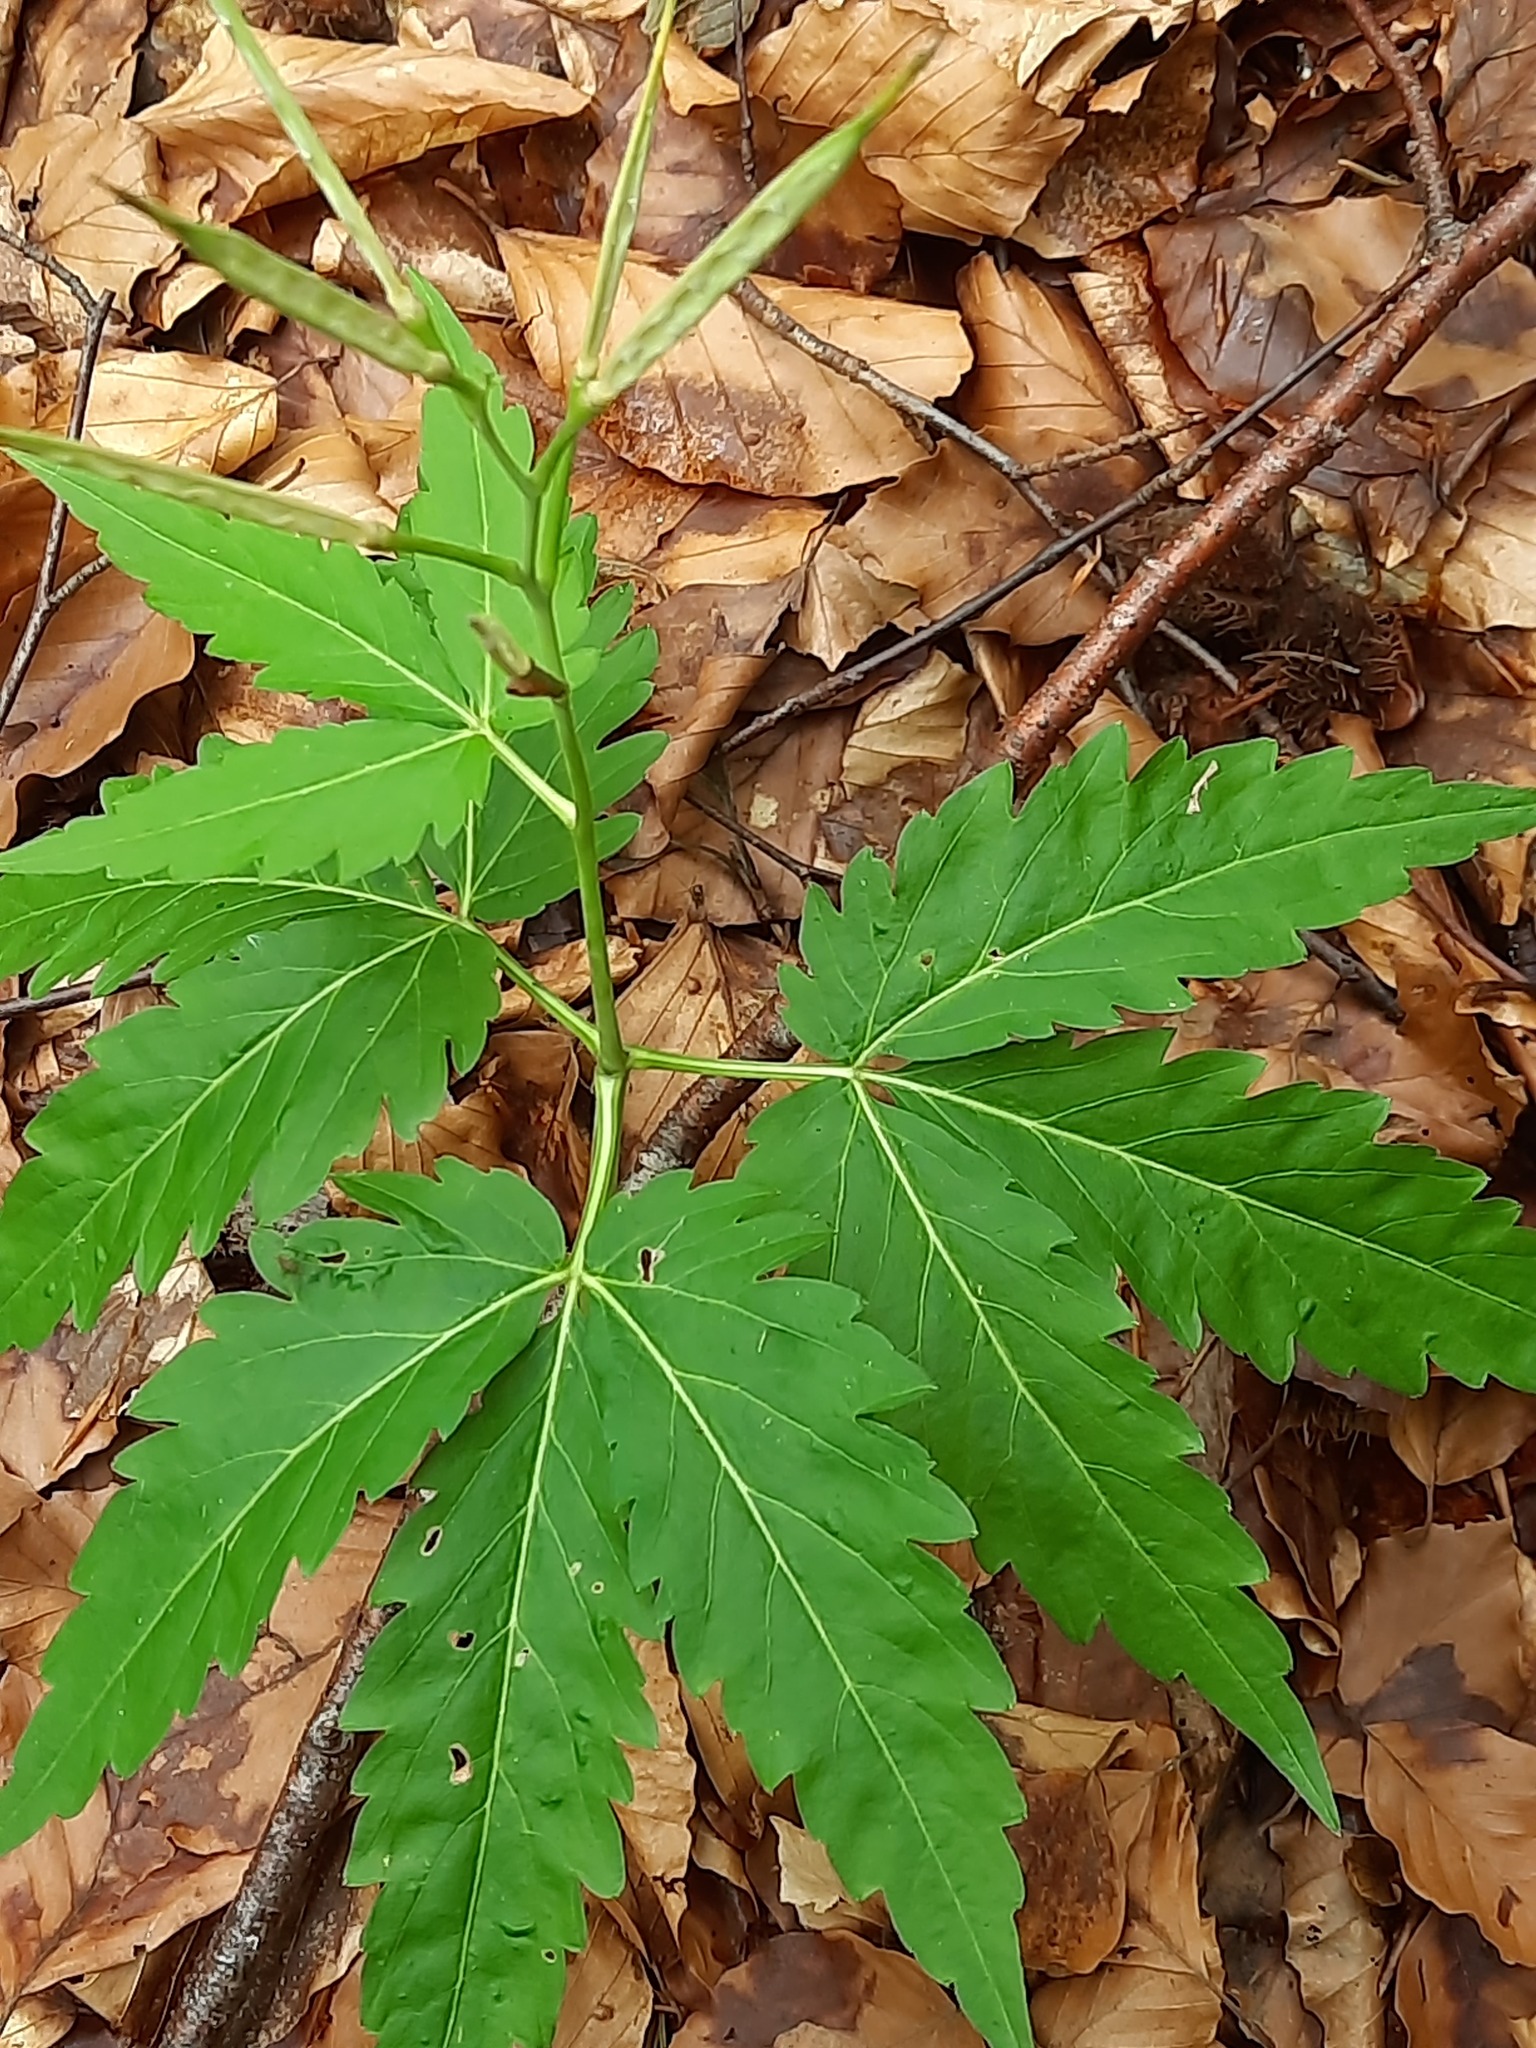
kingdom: Plantae
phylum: Tracheophyta
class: Magnoliopsida
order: Brassicales
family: Brassicaceae
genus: Cardamine
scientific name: Cardamine glanduligera
